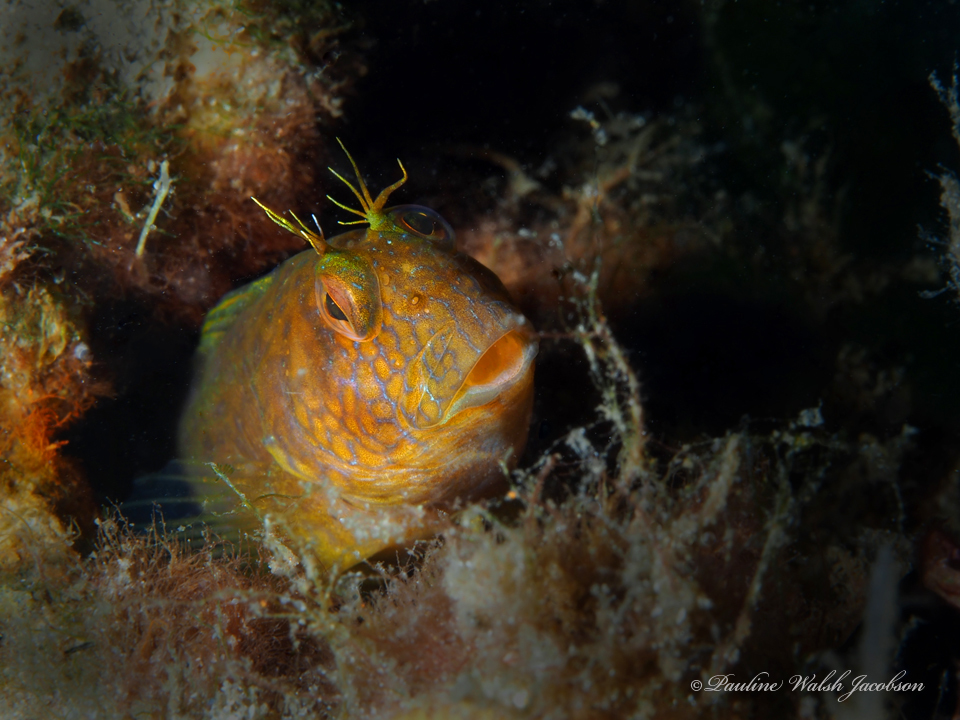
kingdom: Animalia
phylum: Chordata
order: Perciformes
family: Blenniidae
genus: Parablennius
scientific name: Parablennius marmoreus
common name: Seaweed blenny
